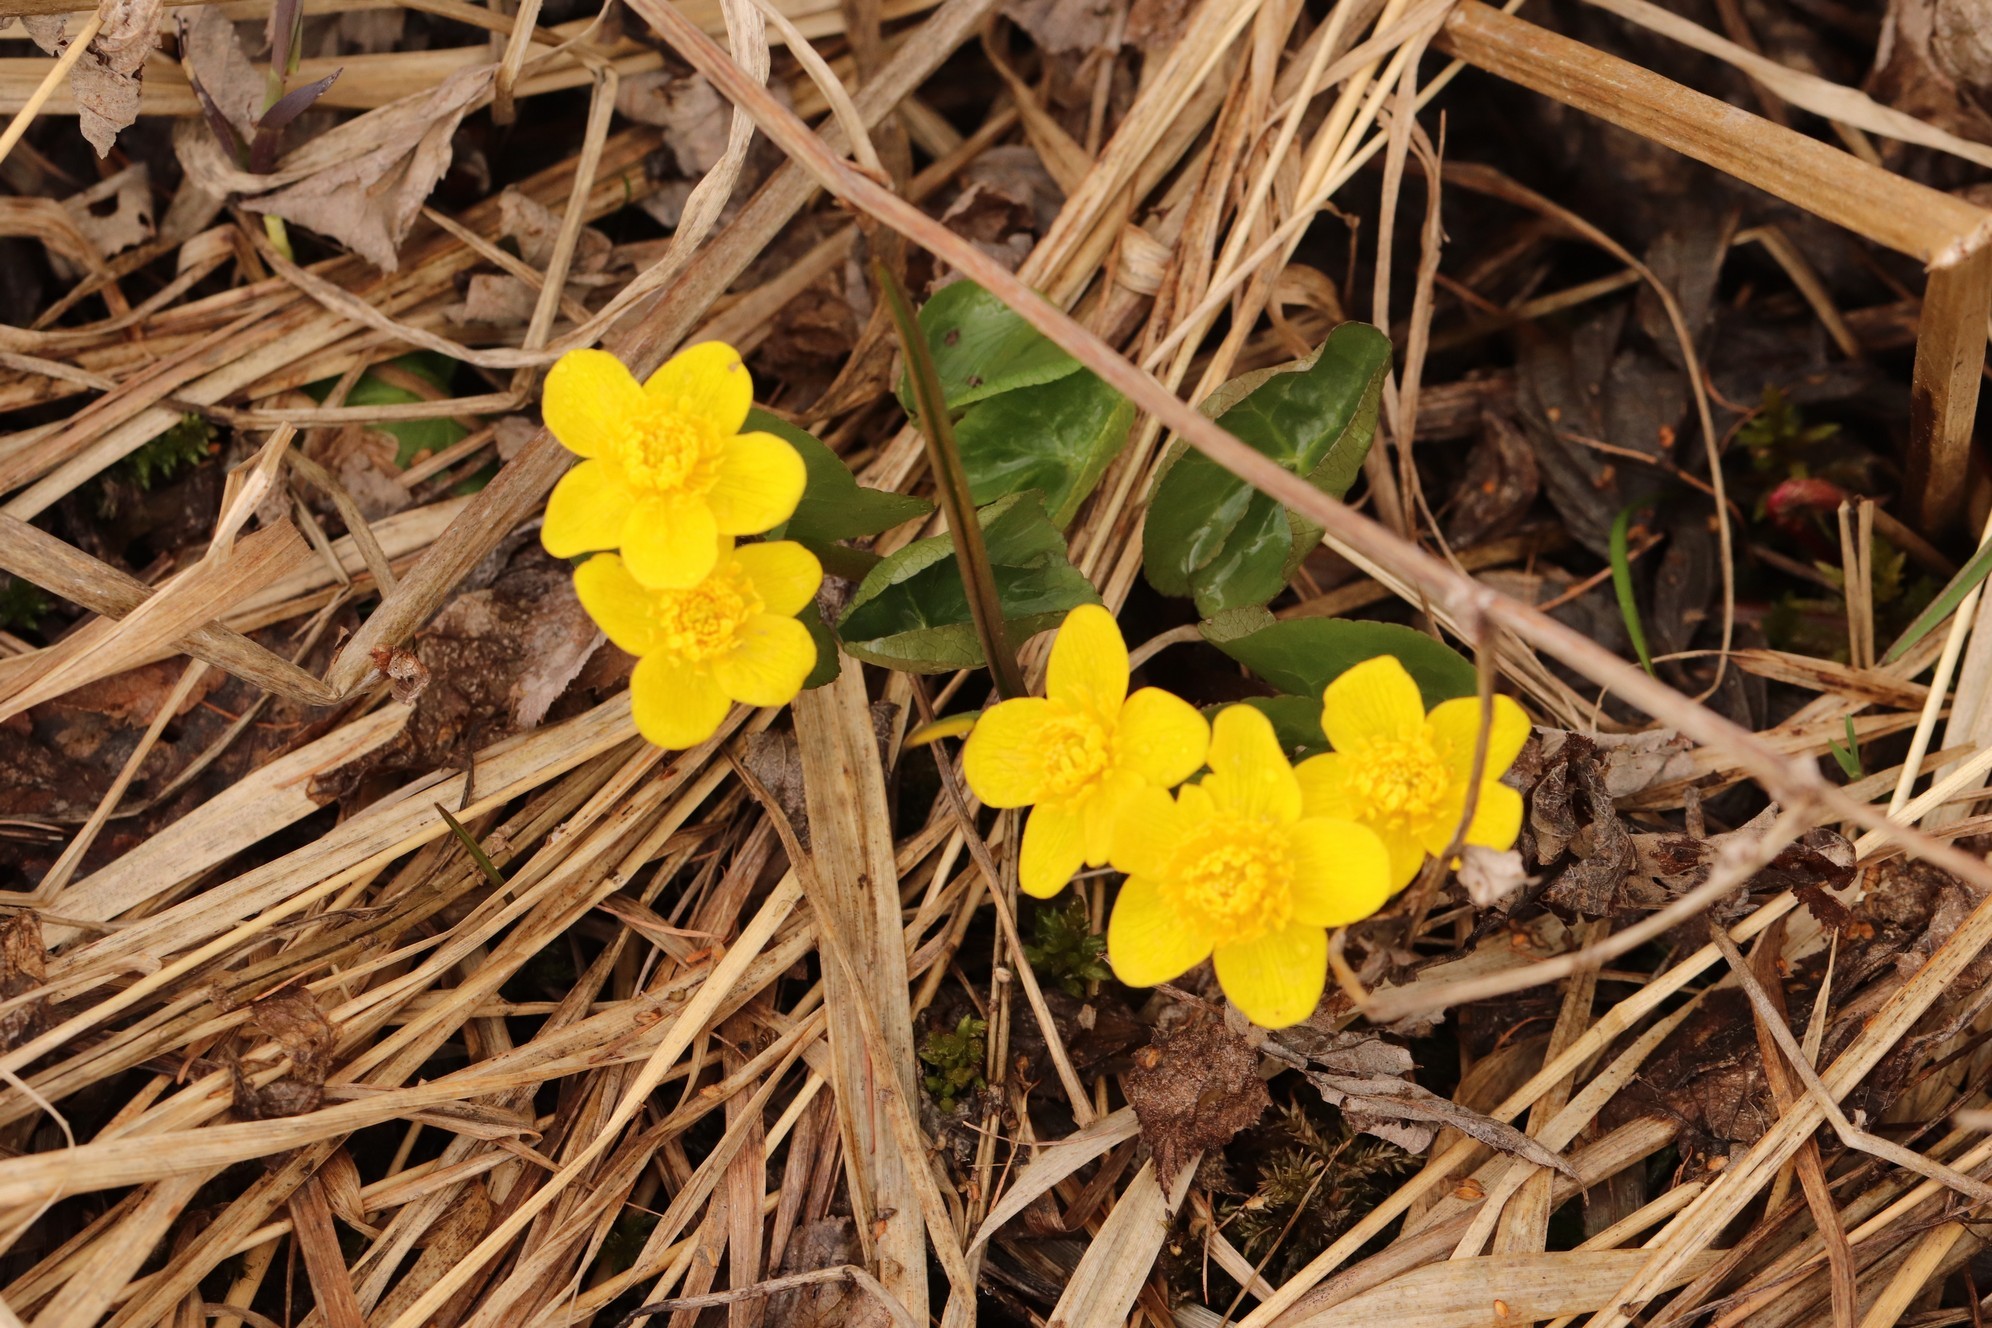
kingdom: Plantae
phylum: Tracheophyta
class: Magnoliopsida
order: Ranunculales
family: Ranunculaceae
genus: Caltha
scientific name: Caltha palustris
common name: Marsh marigold
